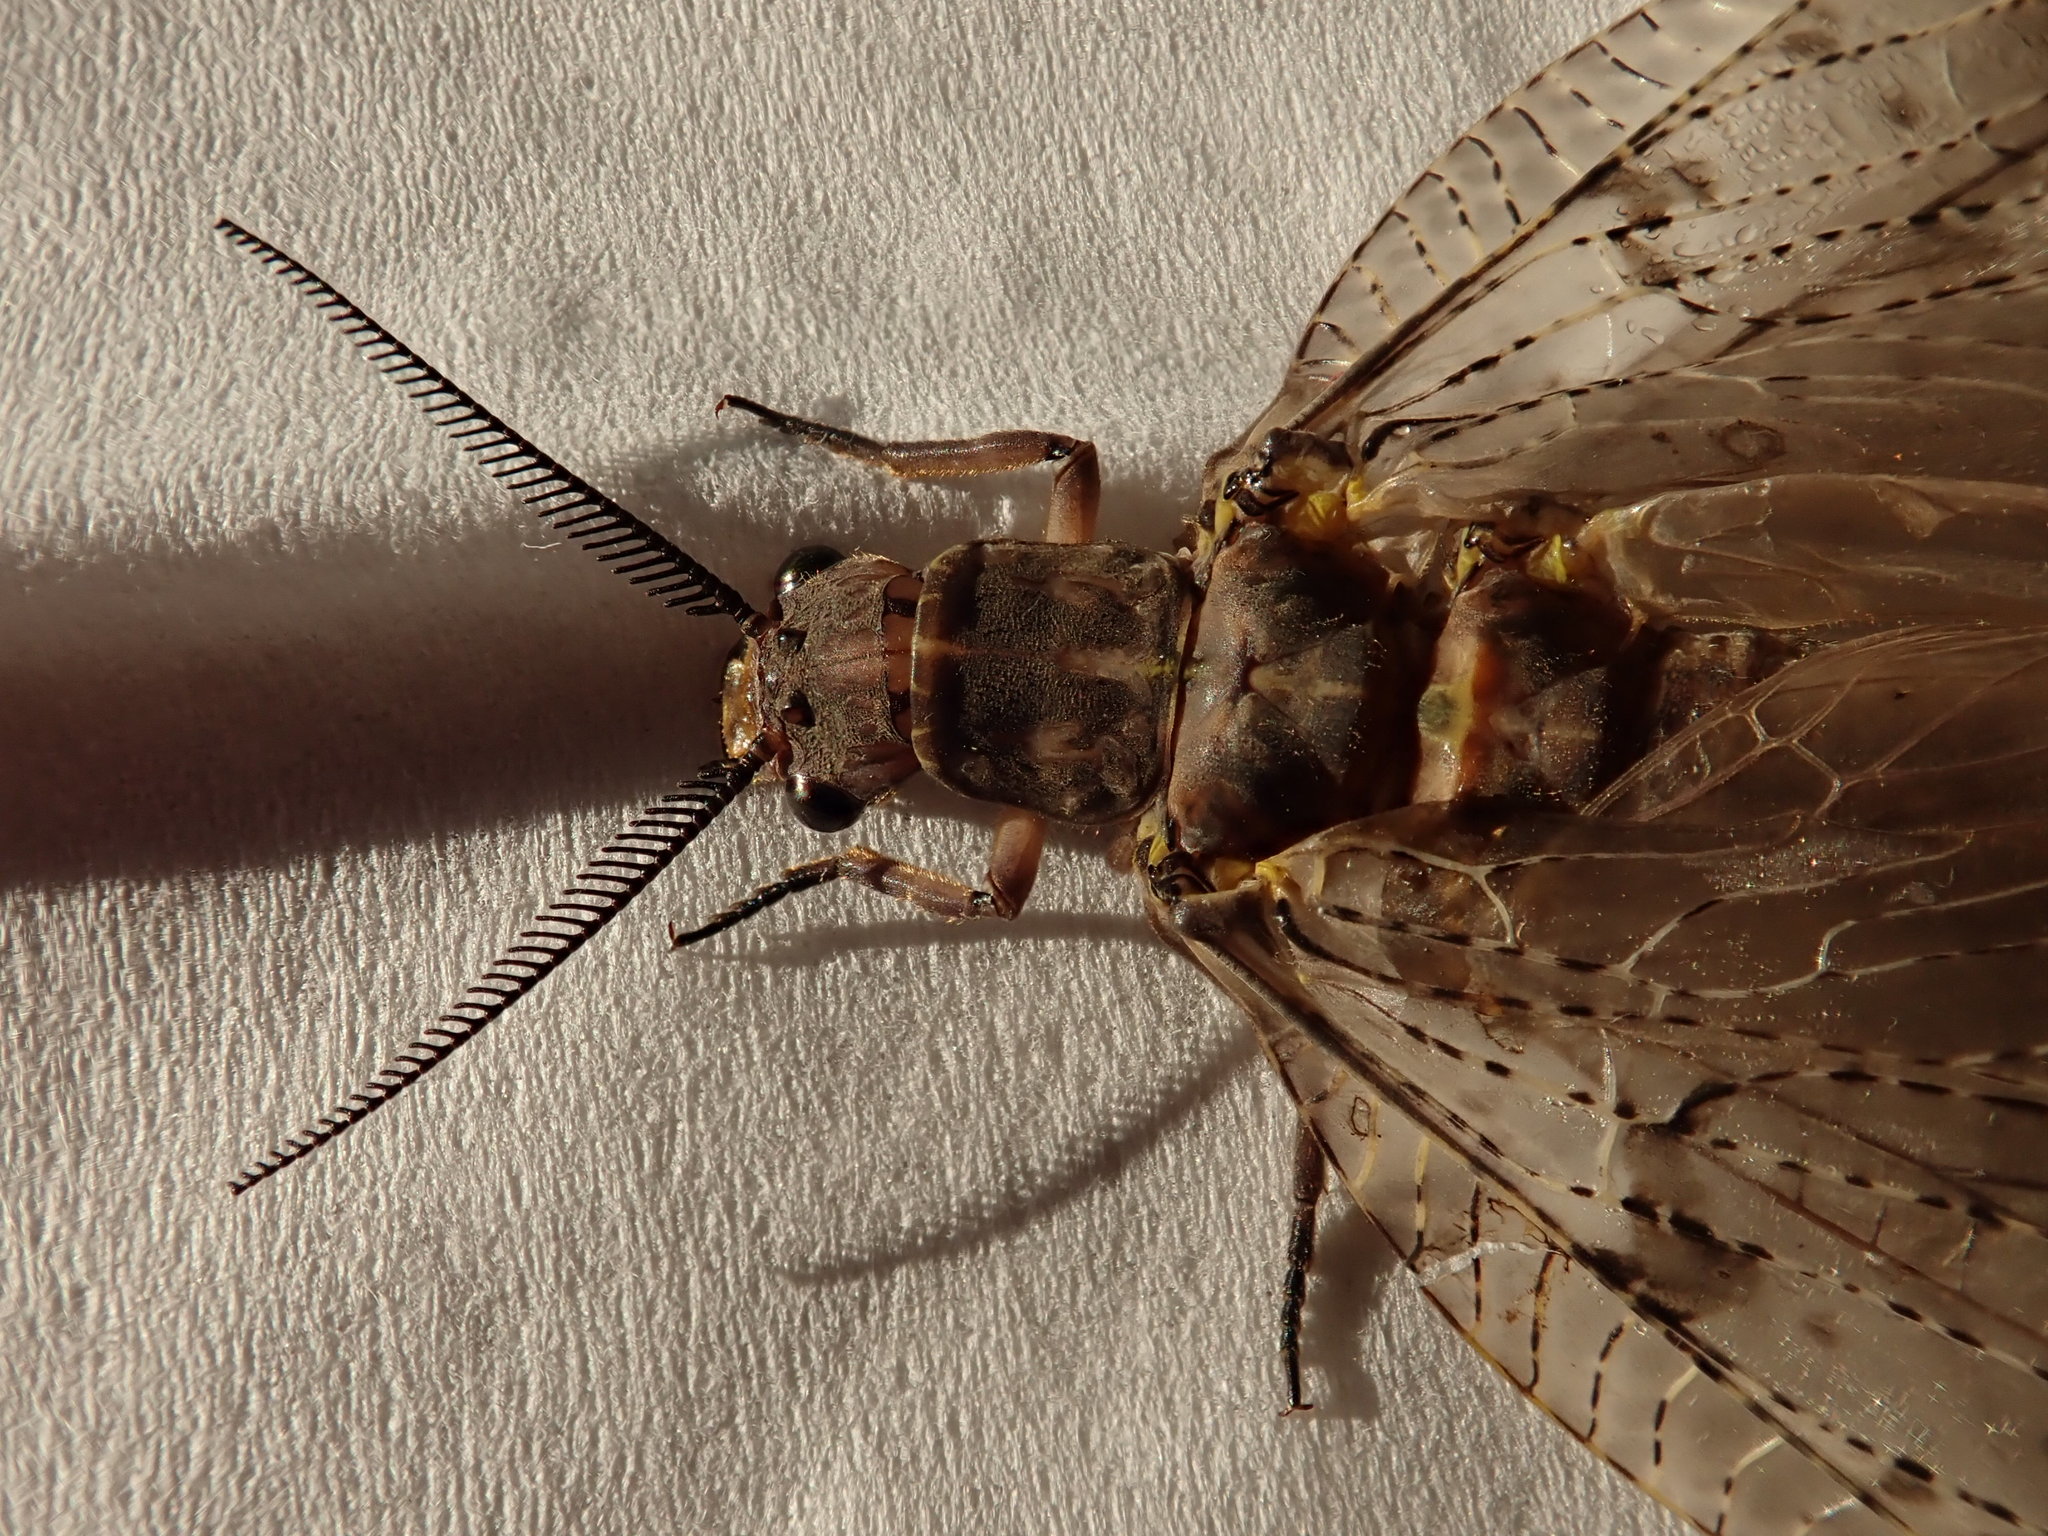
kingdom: Animalia
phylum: Arthropoda
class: Insecta
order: Megaloptera
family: Corydalidae
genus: Chauliodes
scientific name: Chauliodes pectinicornis
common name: Summer fishfly
